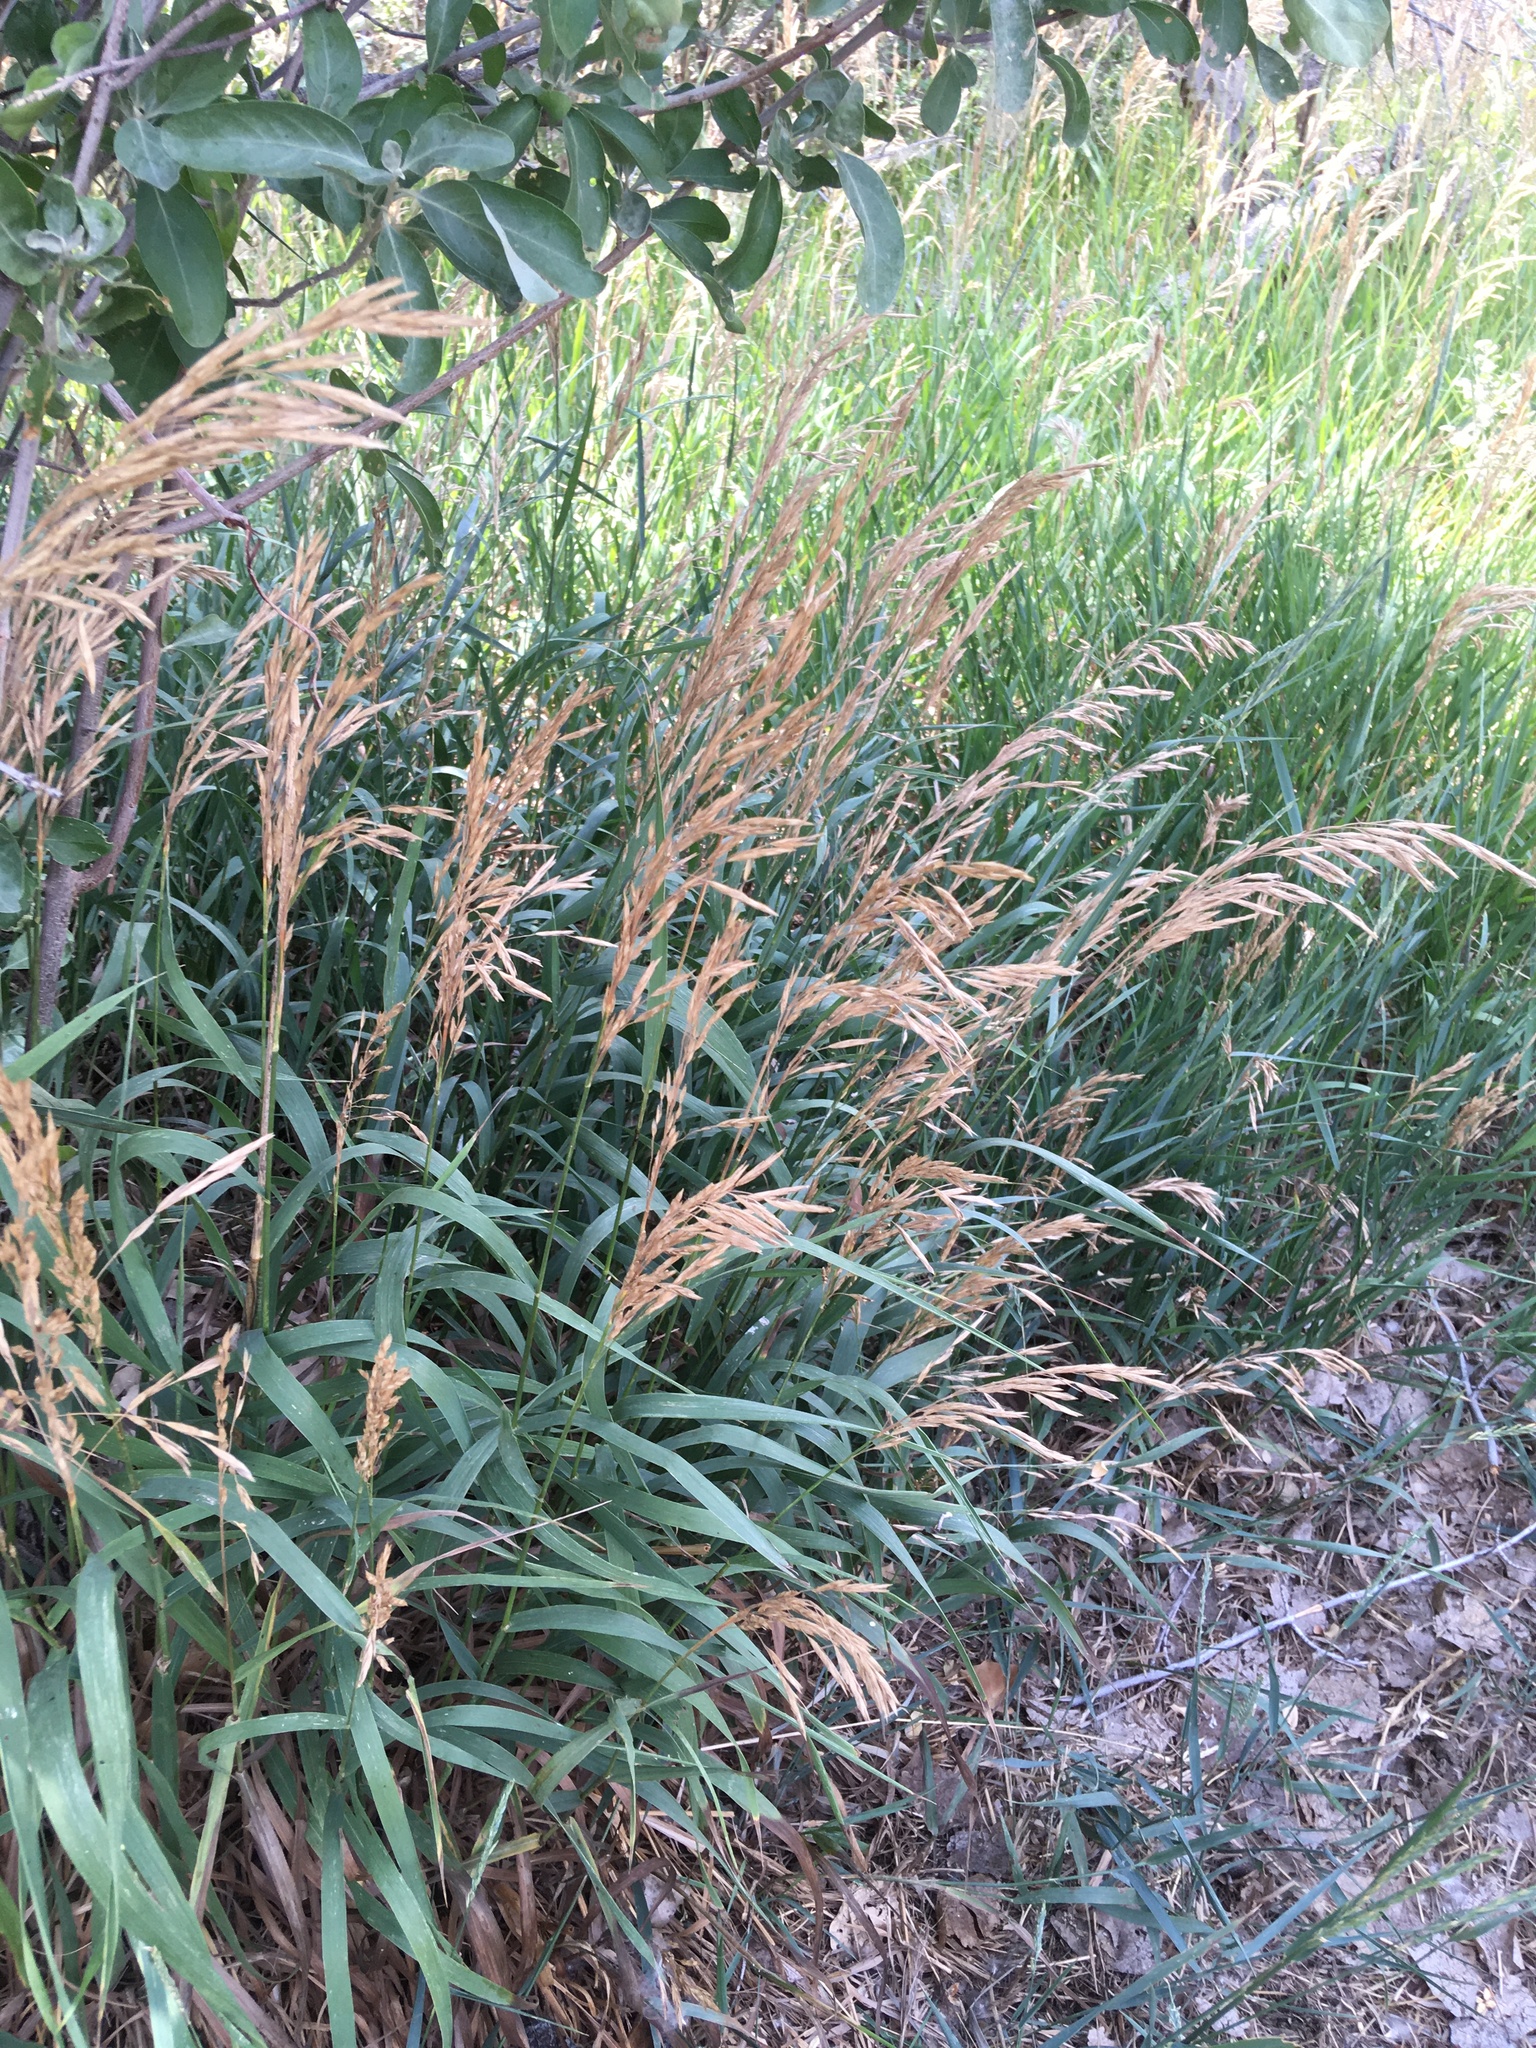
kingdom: Plantae
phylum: Tracheophyta
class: Liliopsida
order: Poales
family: Poaceae
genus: Bromus
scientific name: Bromus inermis
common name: Smooth brome
